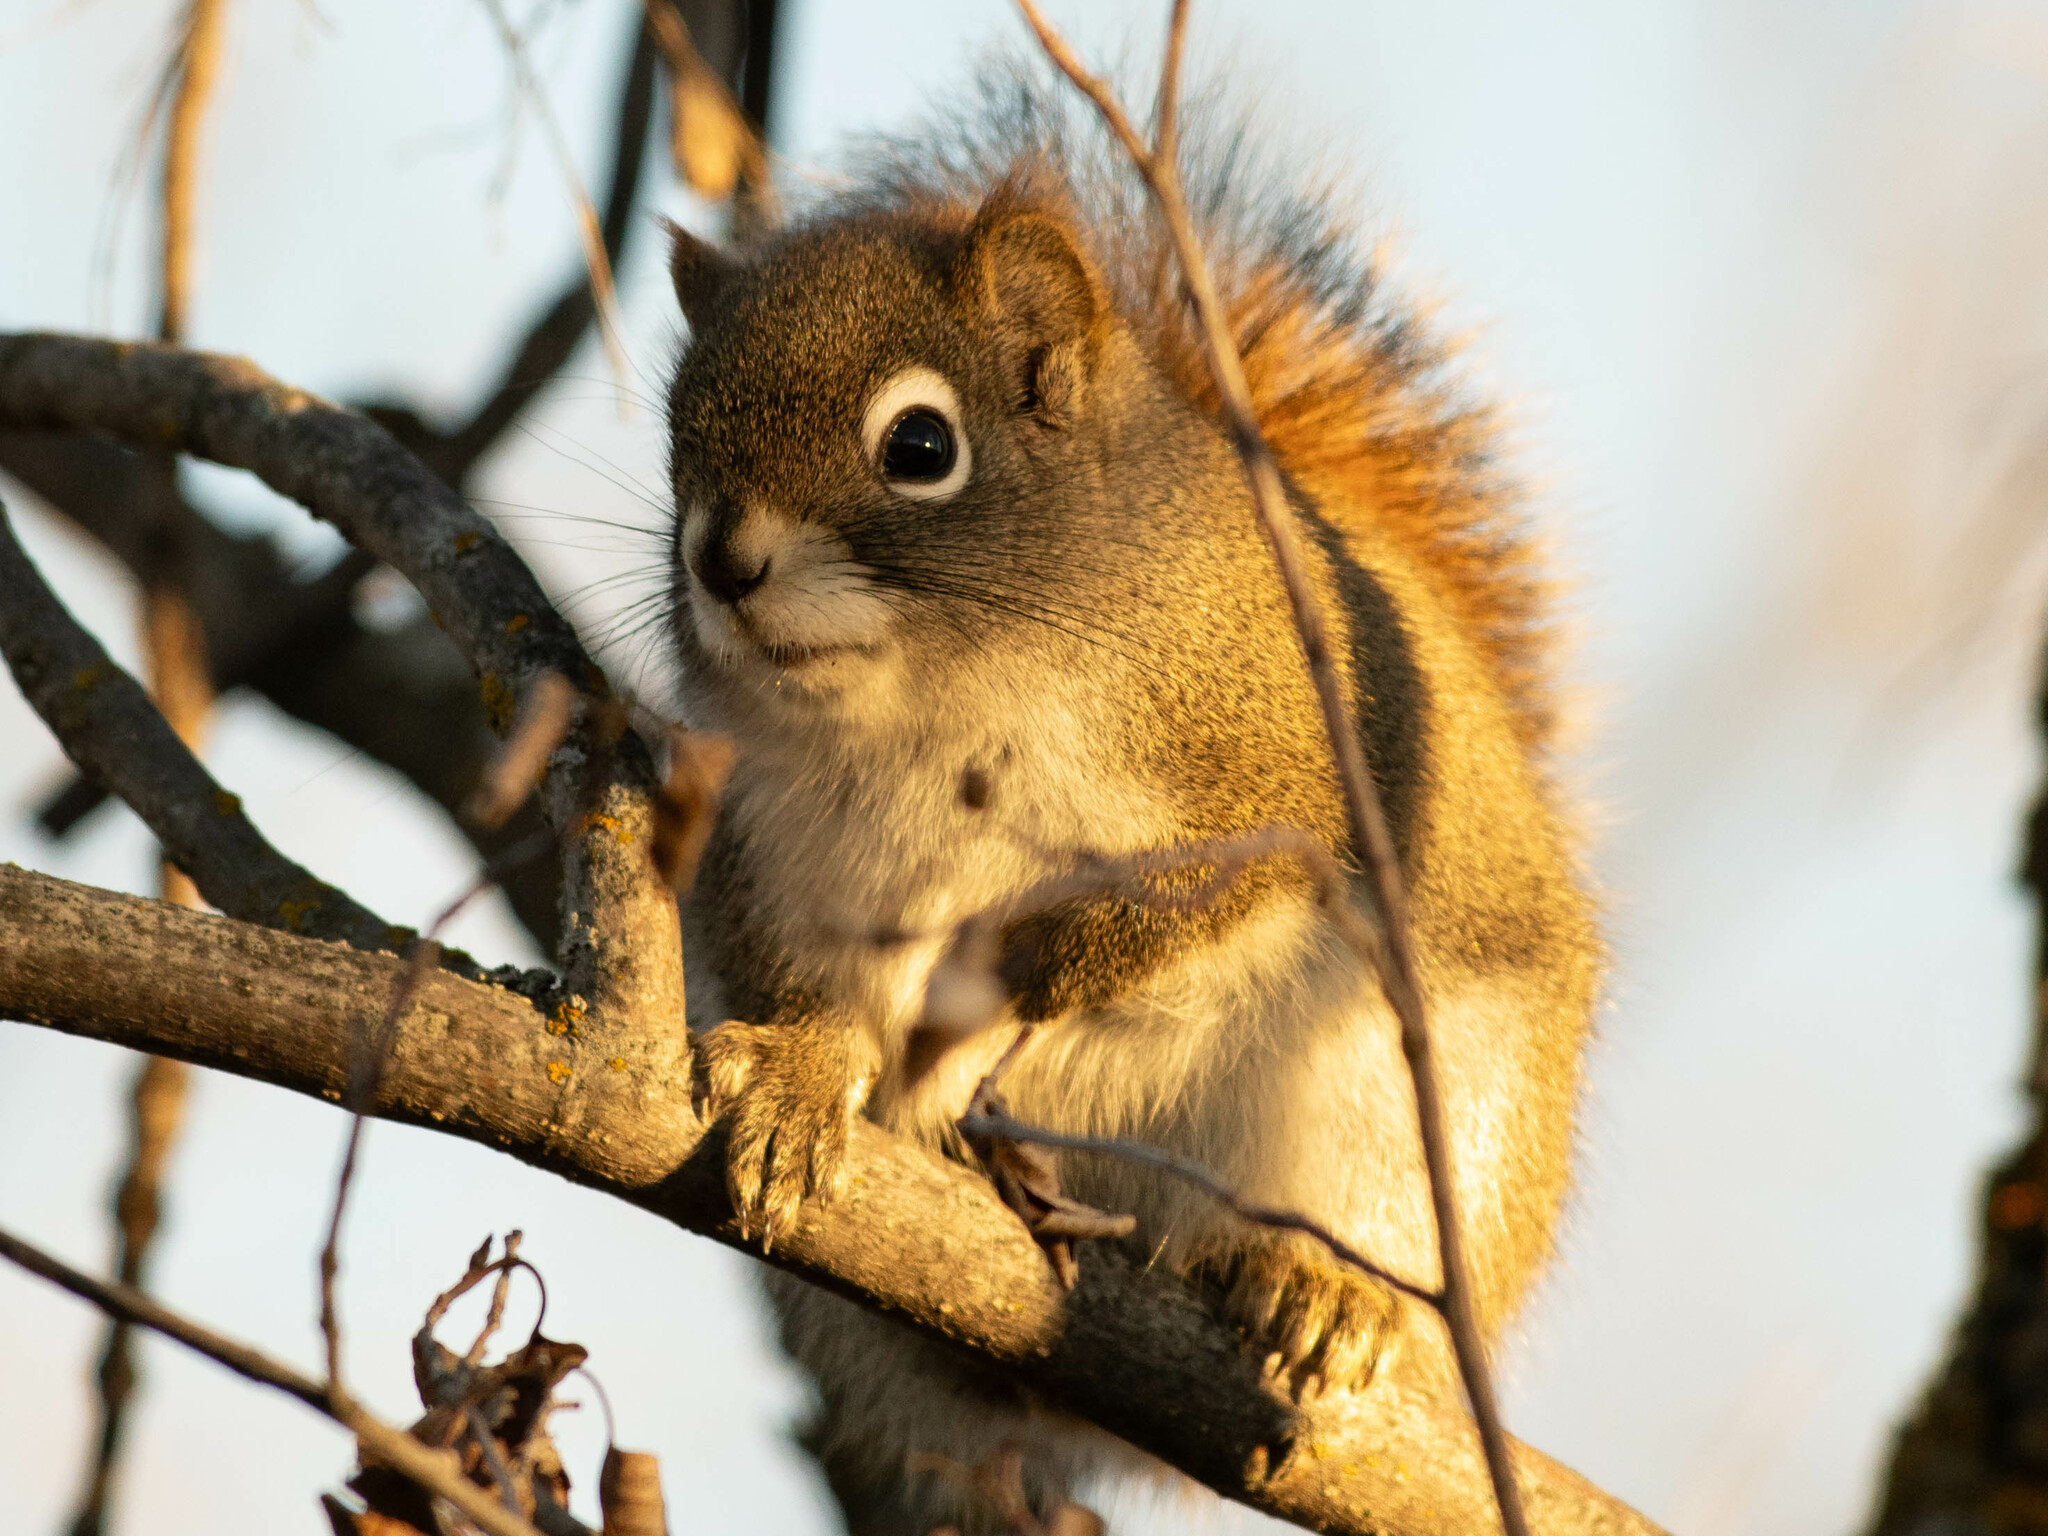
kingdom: Animalia
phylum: Chordata
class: Mammalia
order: Rodentia
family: Sciuridae
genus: Tamiasciurus
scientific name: Tamiasciurus hudsonicus
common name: Red squirrel
